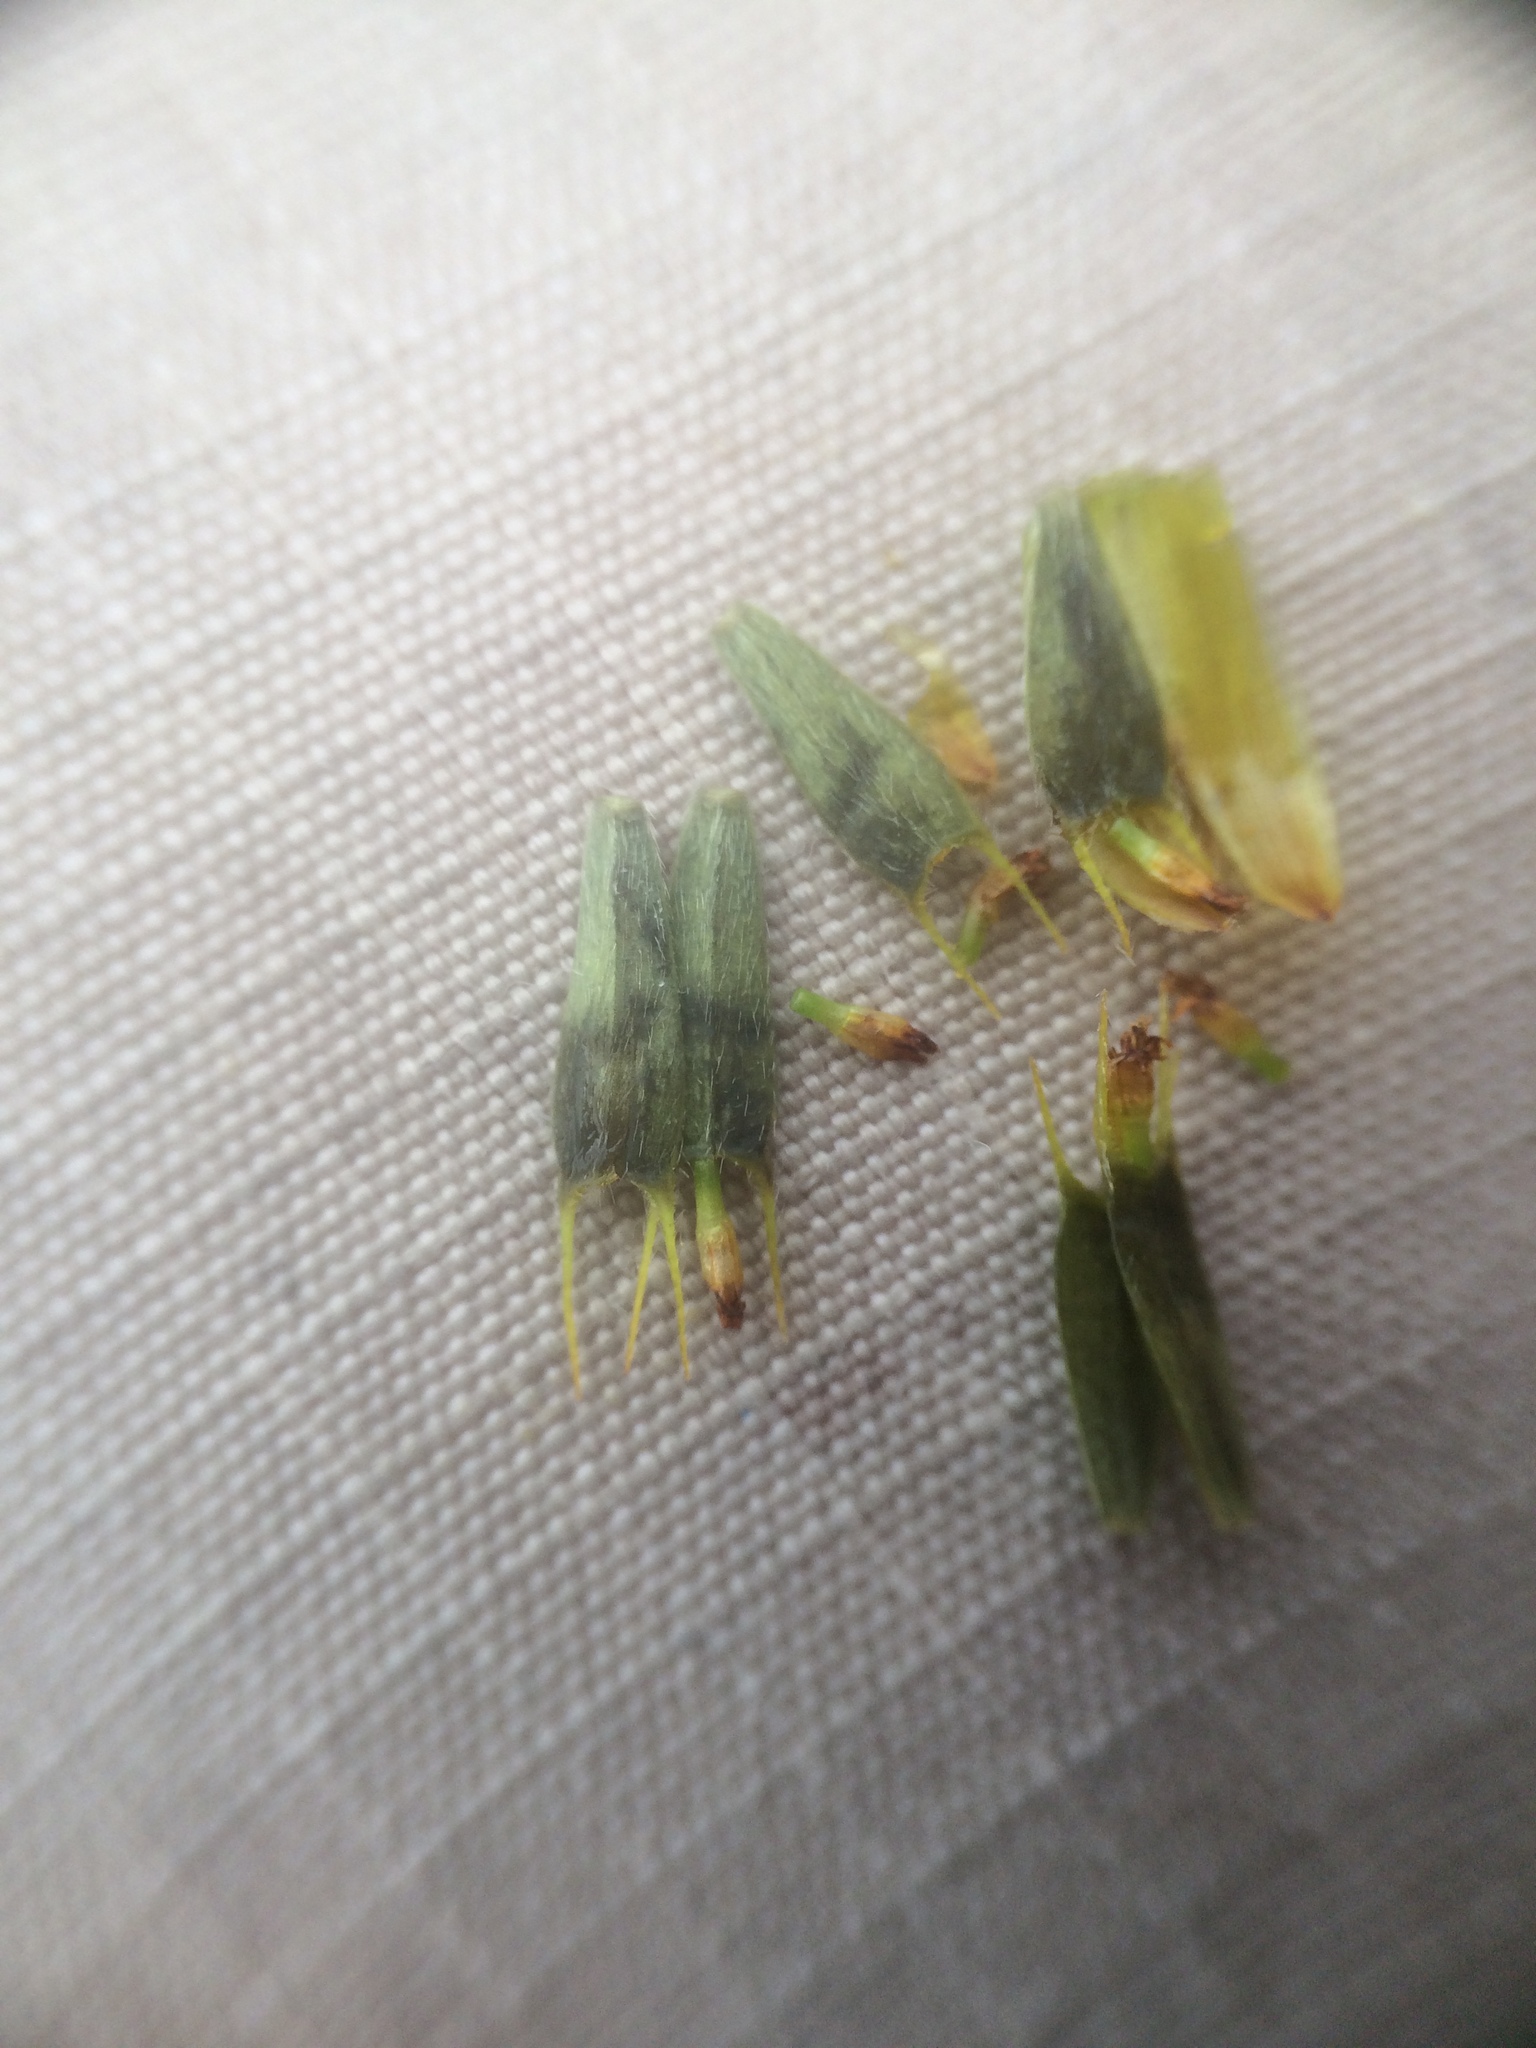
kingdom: Plantae
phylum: Tracheophyta
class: Magnoliopsida
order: Asterales
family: Asteraceae
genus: Bidens
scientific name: Bidens frondosa
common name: Beggarticks
